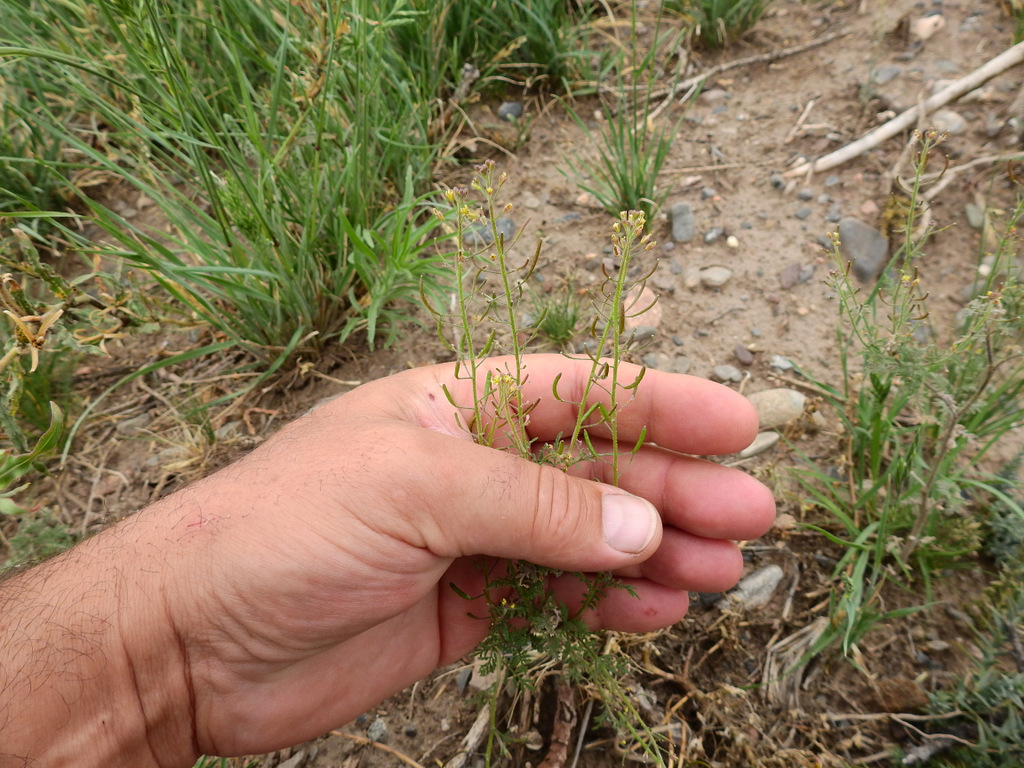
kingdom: Plantae
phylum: Tracheophyta
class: Magnoliopsida
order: Brassicales
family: Brassicaceae
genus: Descurainia
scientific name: Descurainia pimpinellifolia
